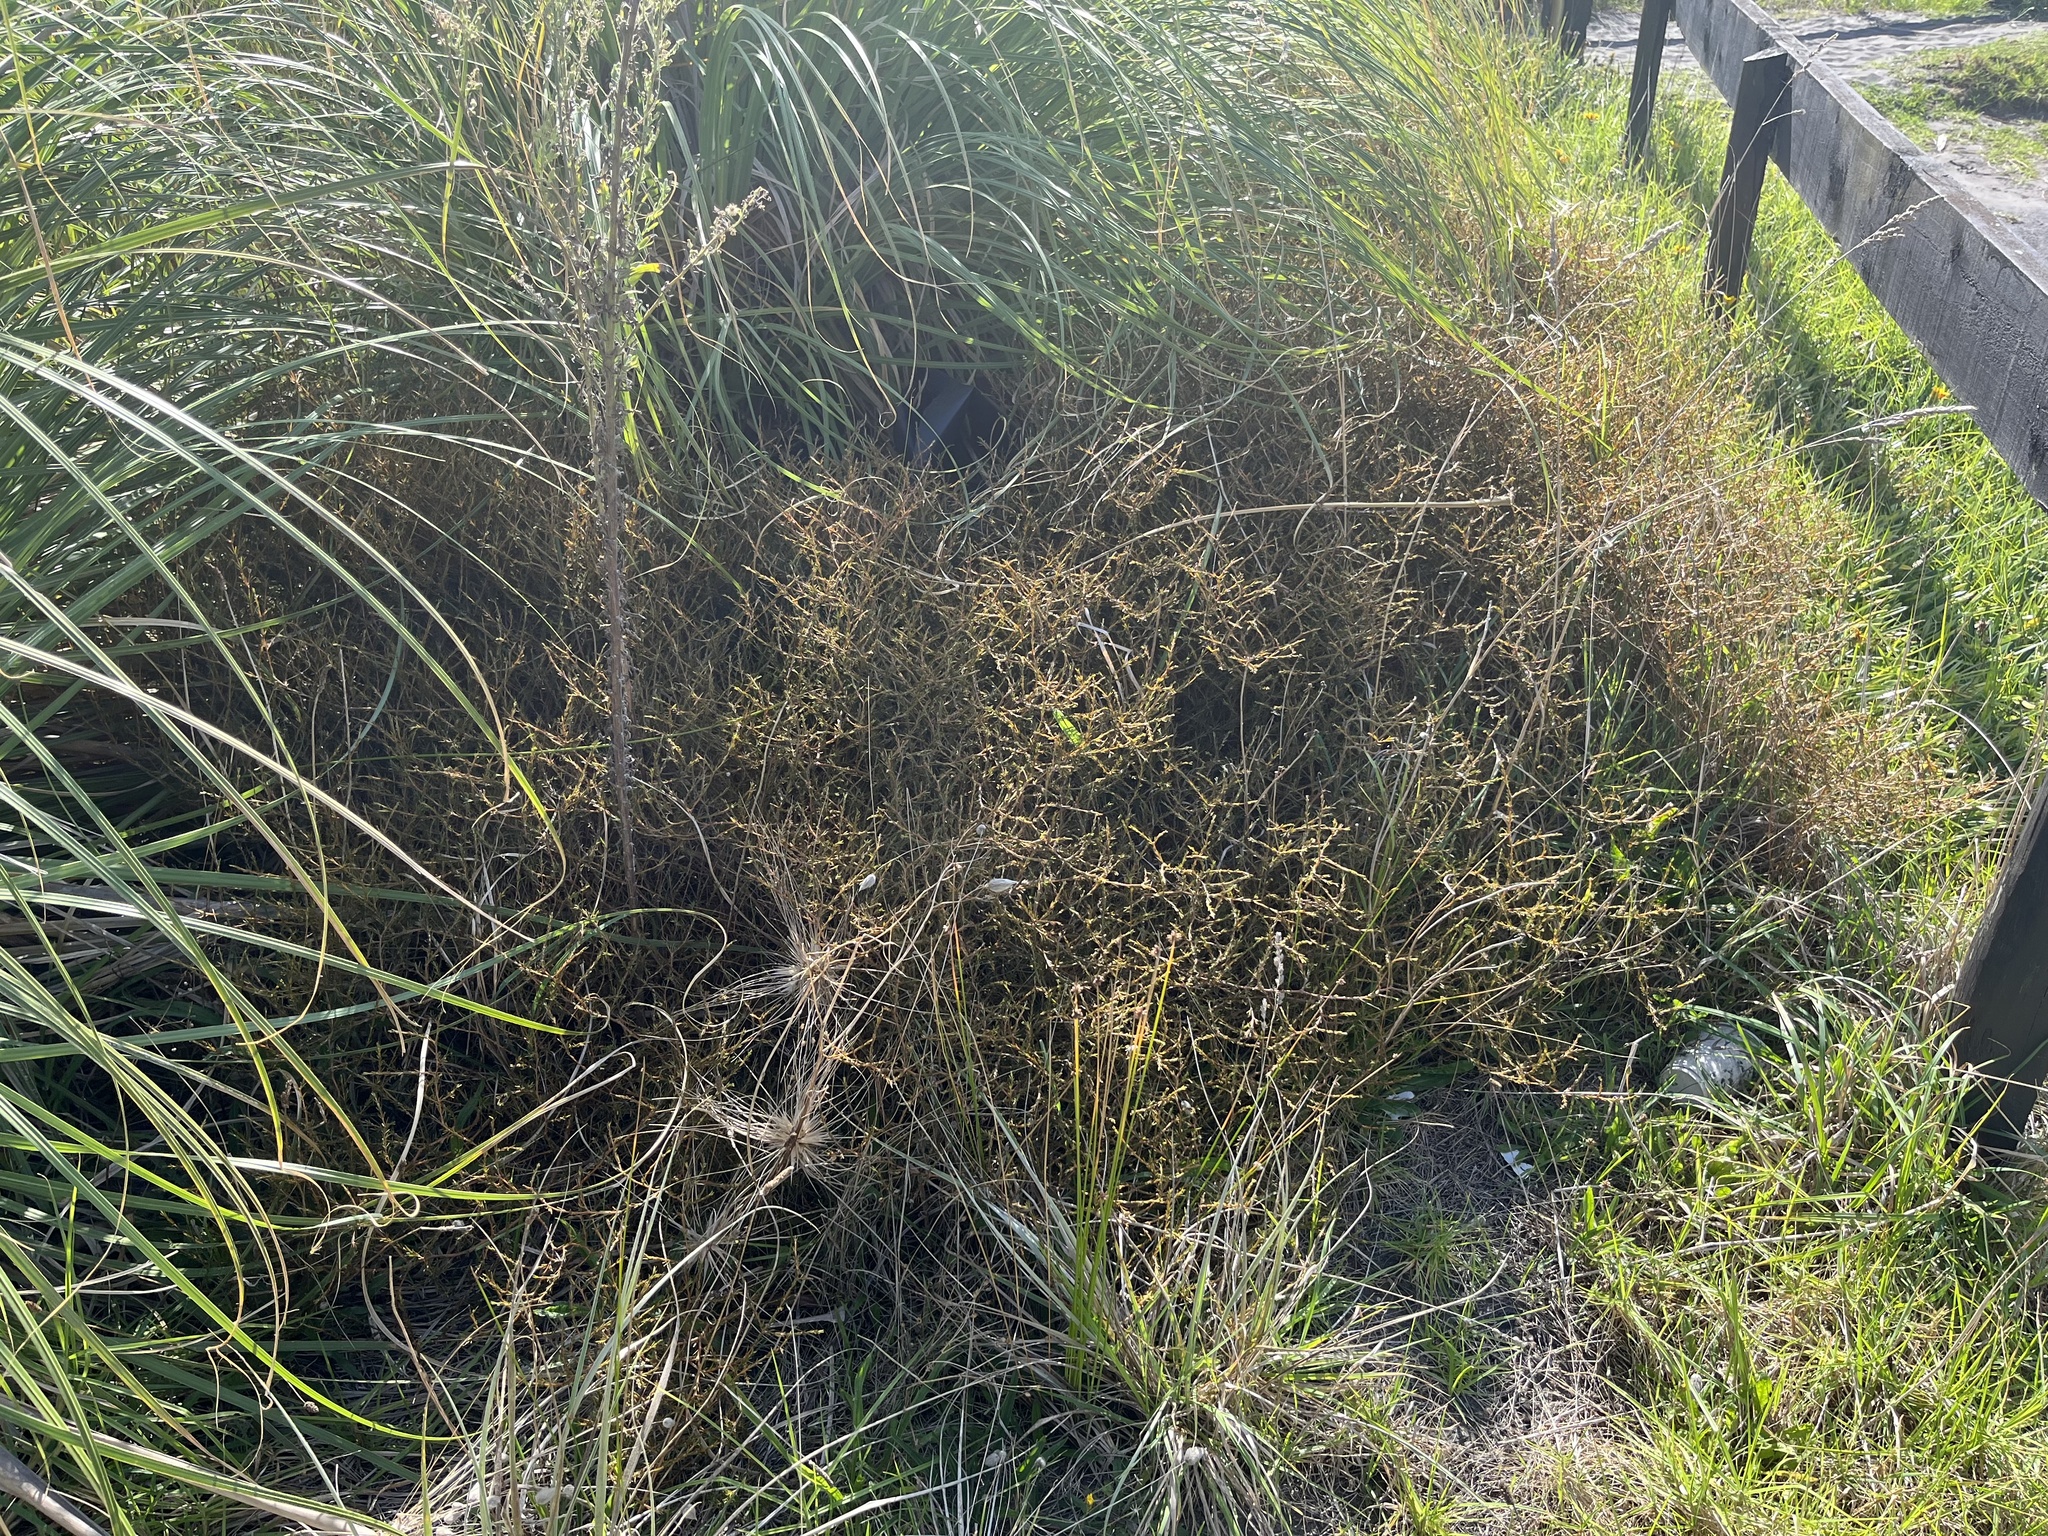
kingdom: Plantae
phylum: Tracheophyta
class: Magnoliopsida
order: Gentianales
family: Rubiaceae
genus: Coprosma
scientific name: Coprosma acerosa
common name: Sand coprosma
